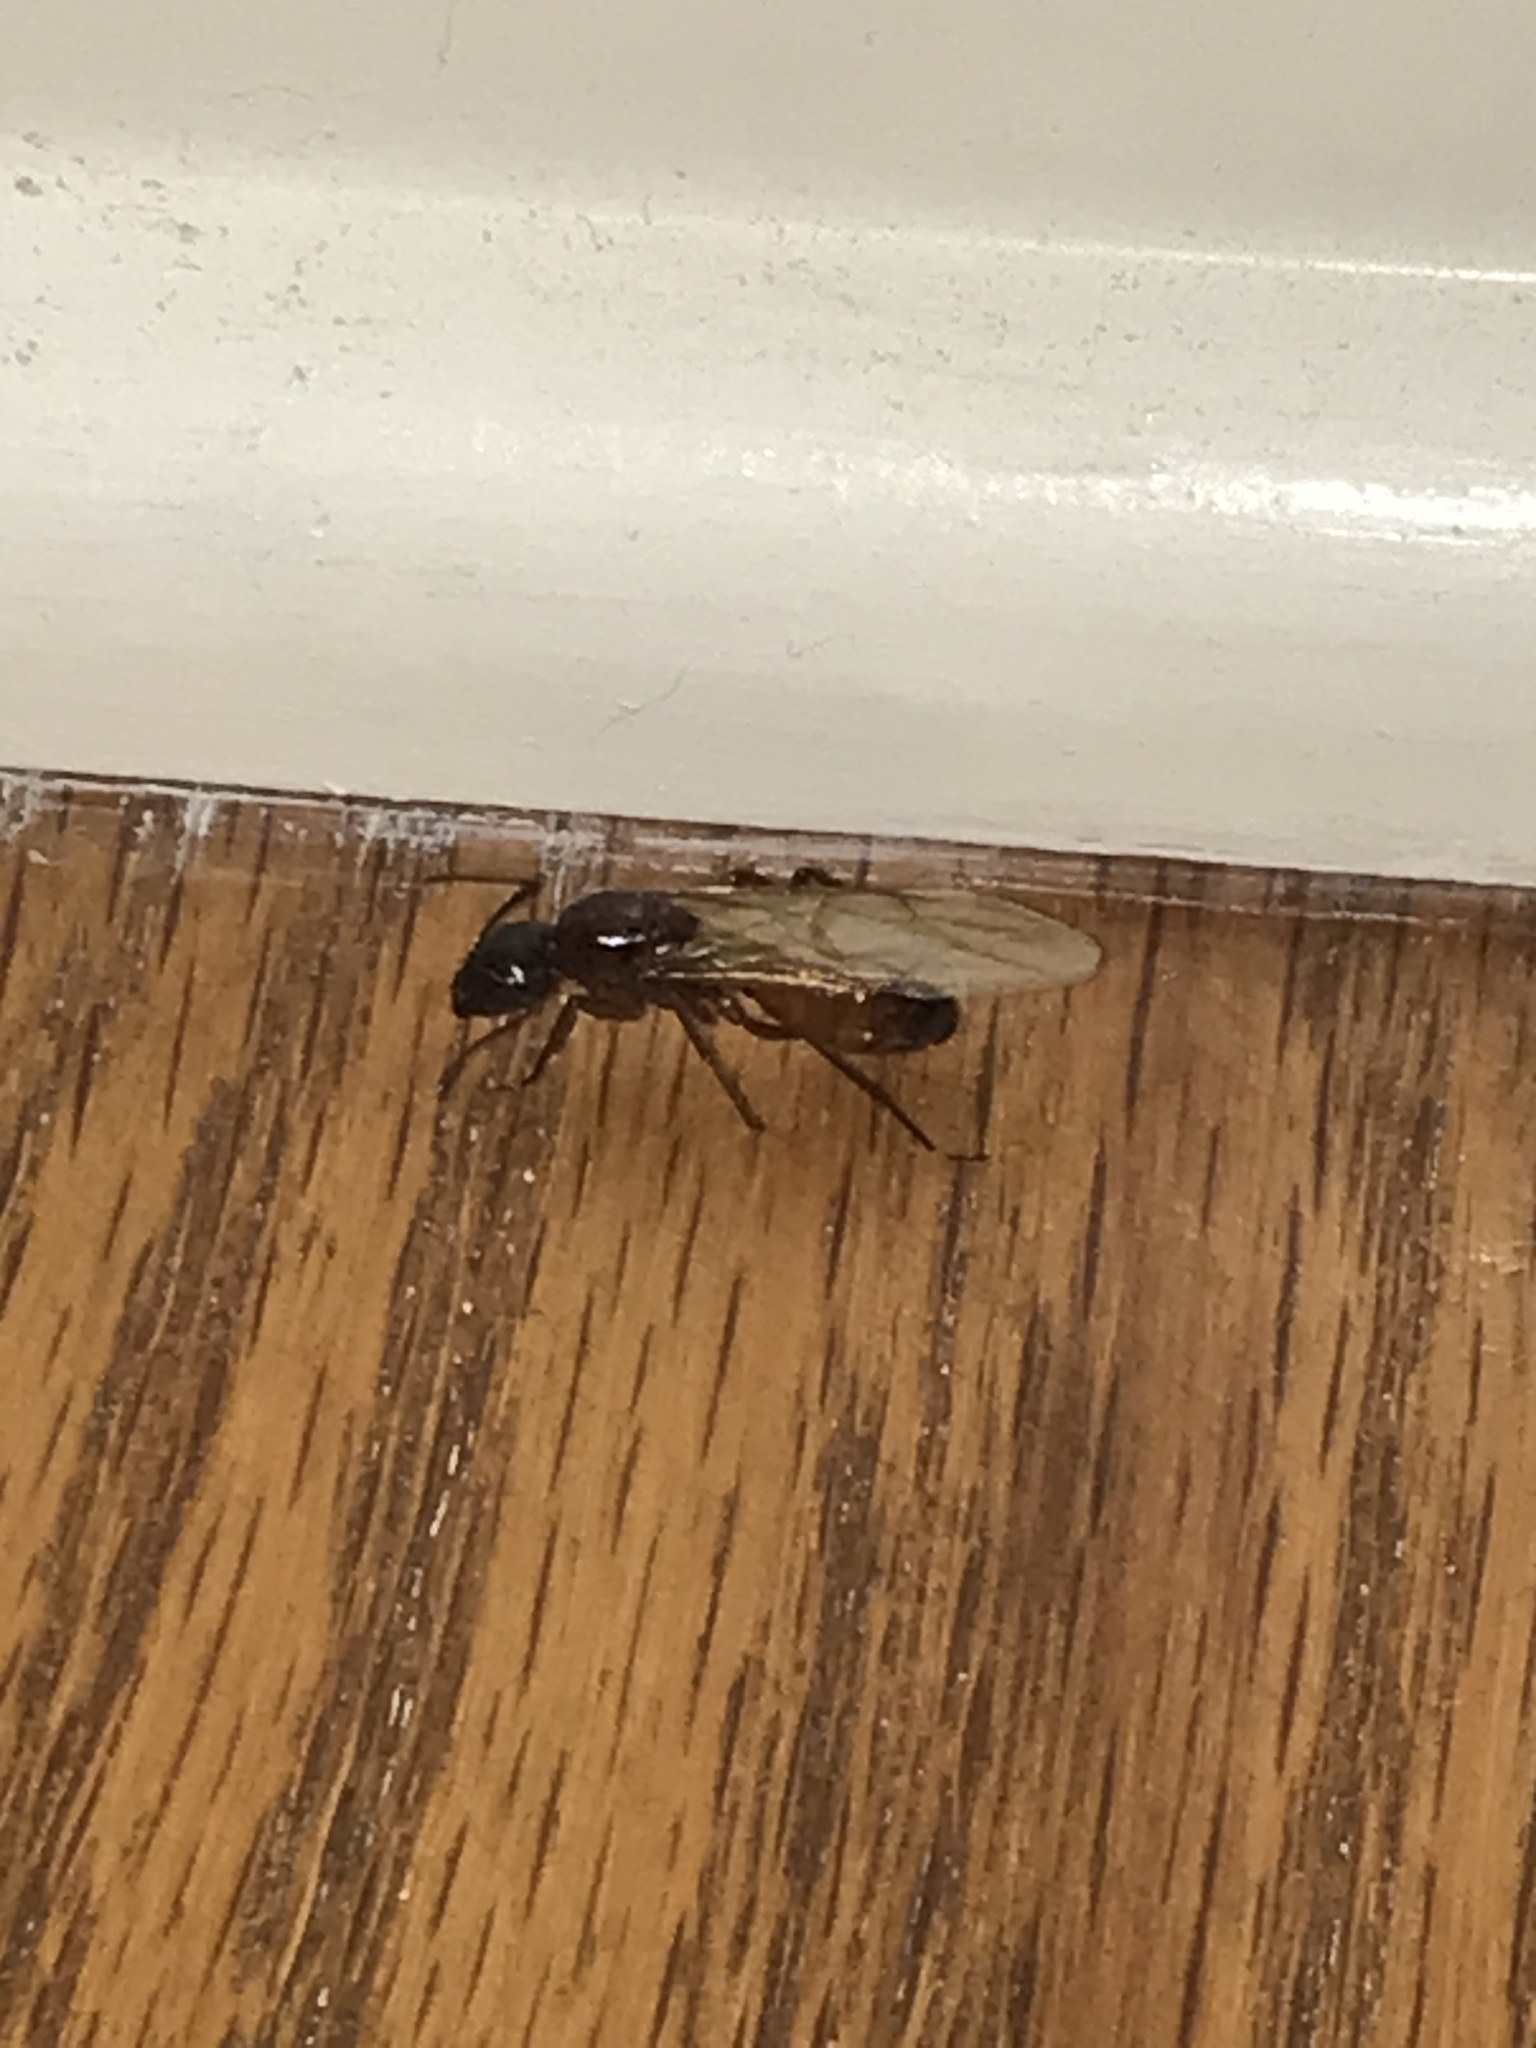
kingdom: Animalia
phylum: Arthropoda
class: Insecta
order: Hymenoptera
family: Formicidae
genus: Camponotus
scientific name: Camponotus americanus
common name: American carpenter ant
